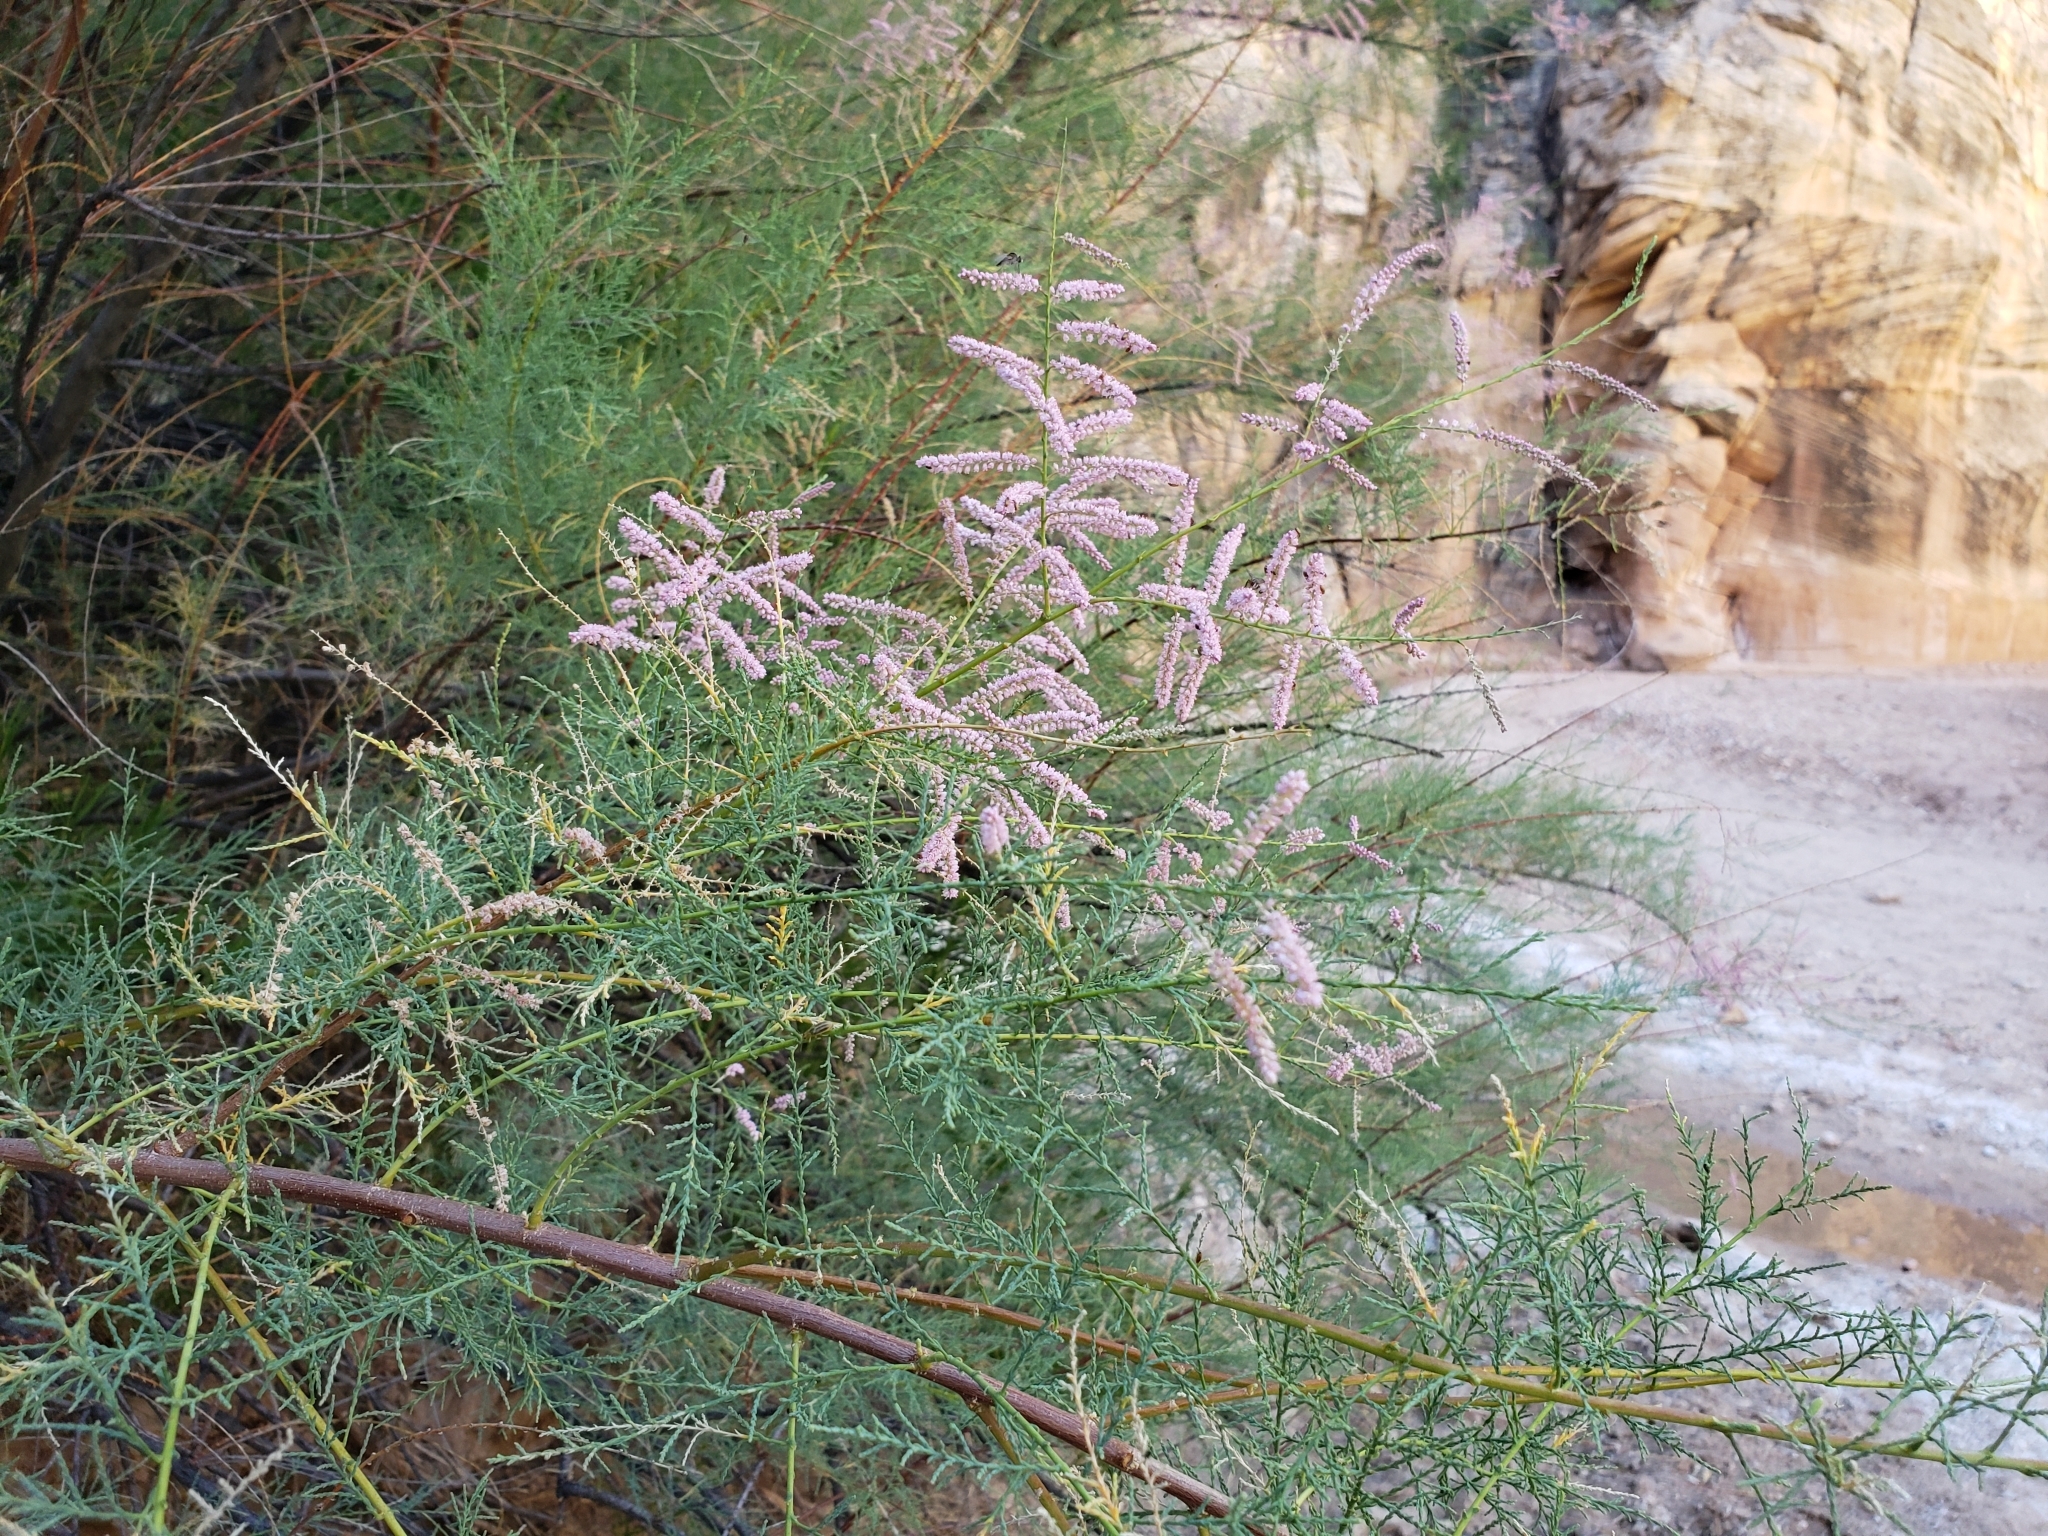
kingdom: Plantae
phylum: Tracheophyta
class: Magnoliopsida
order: Caryophyllales
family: Tamaricaceae
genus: Tamarix
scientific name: Tamarix ramosissima
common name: Pink tamarisk
